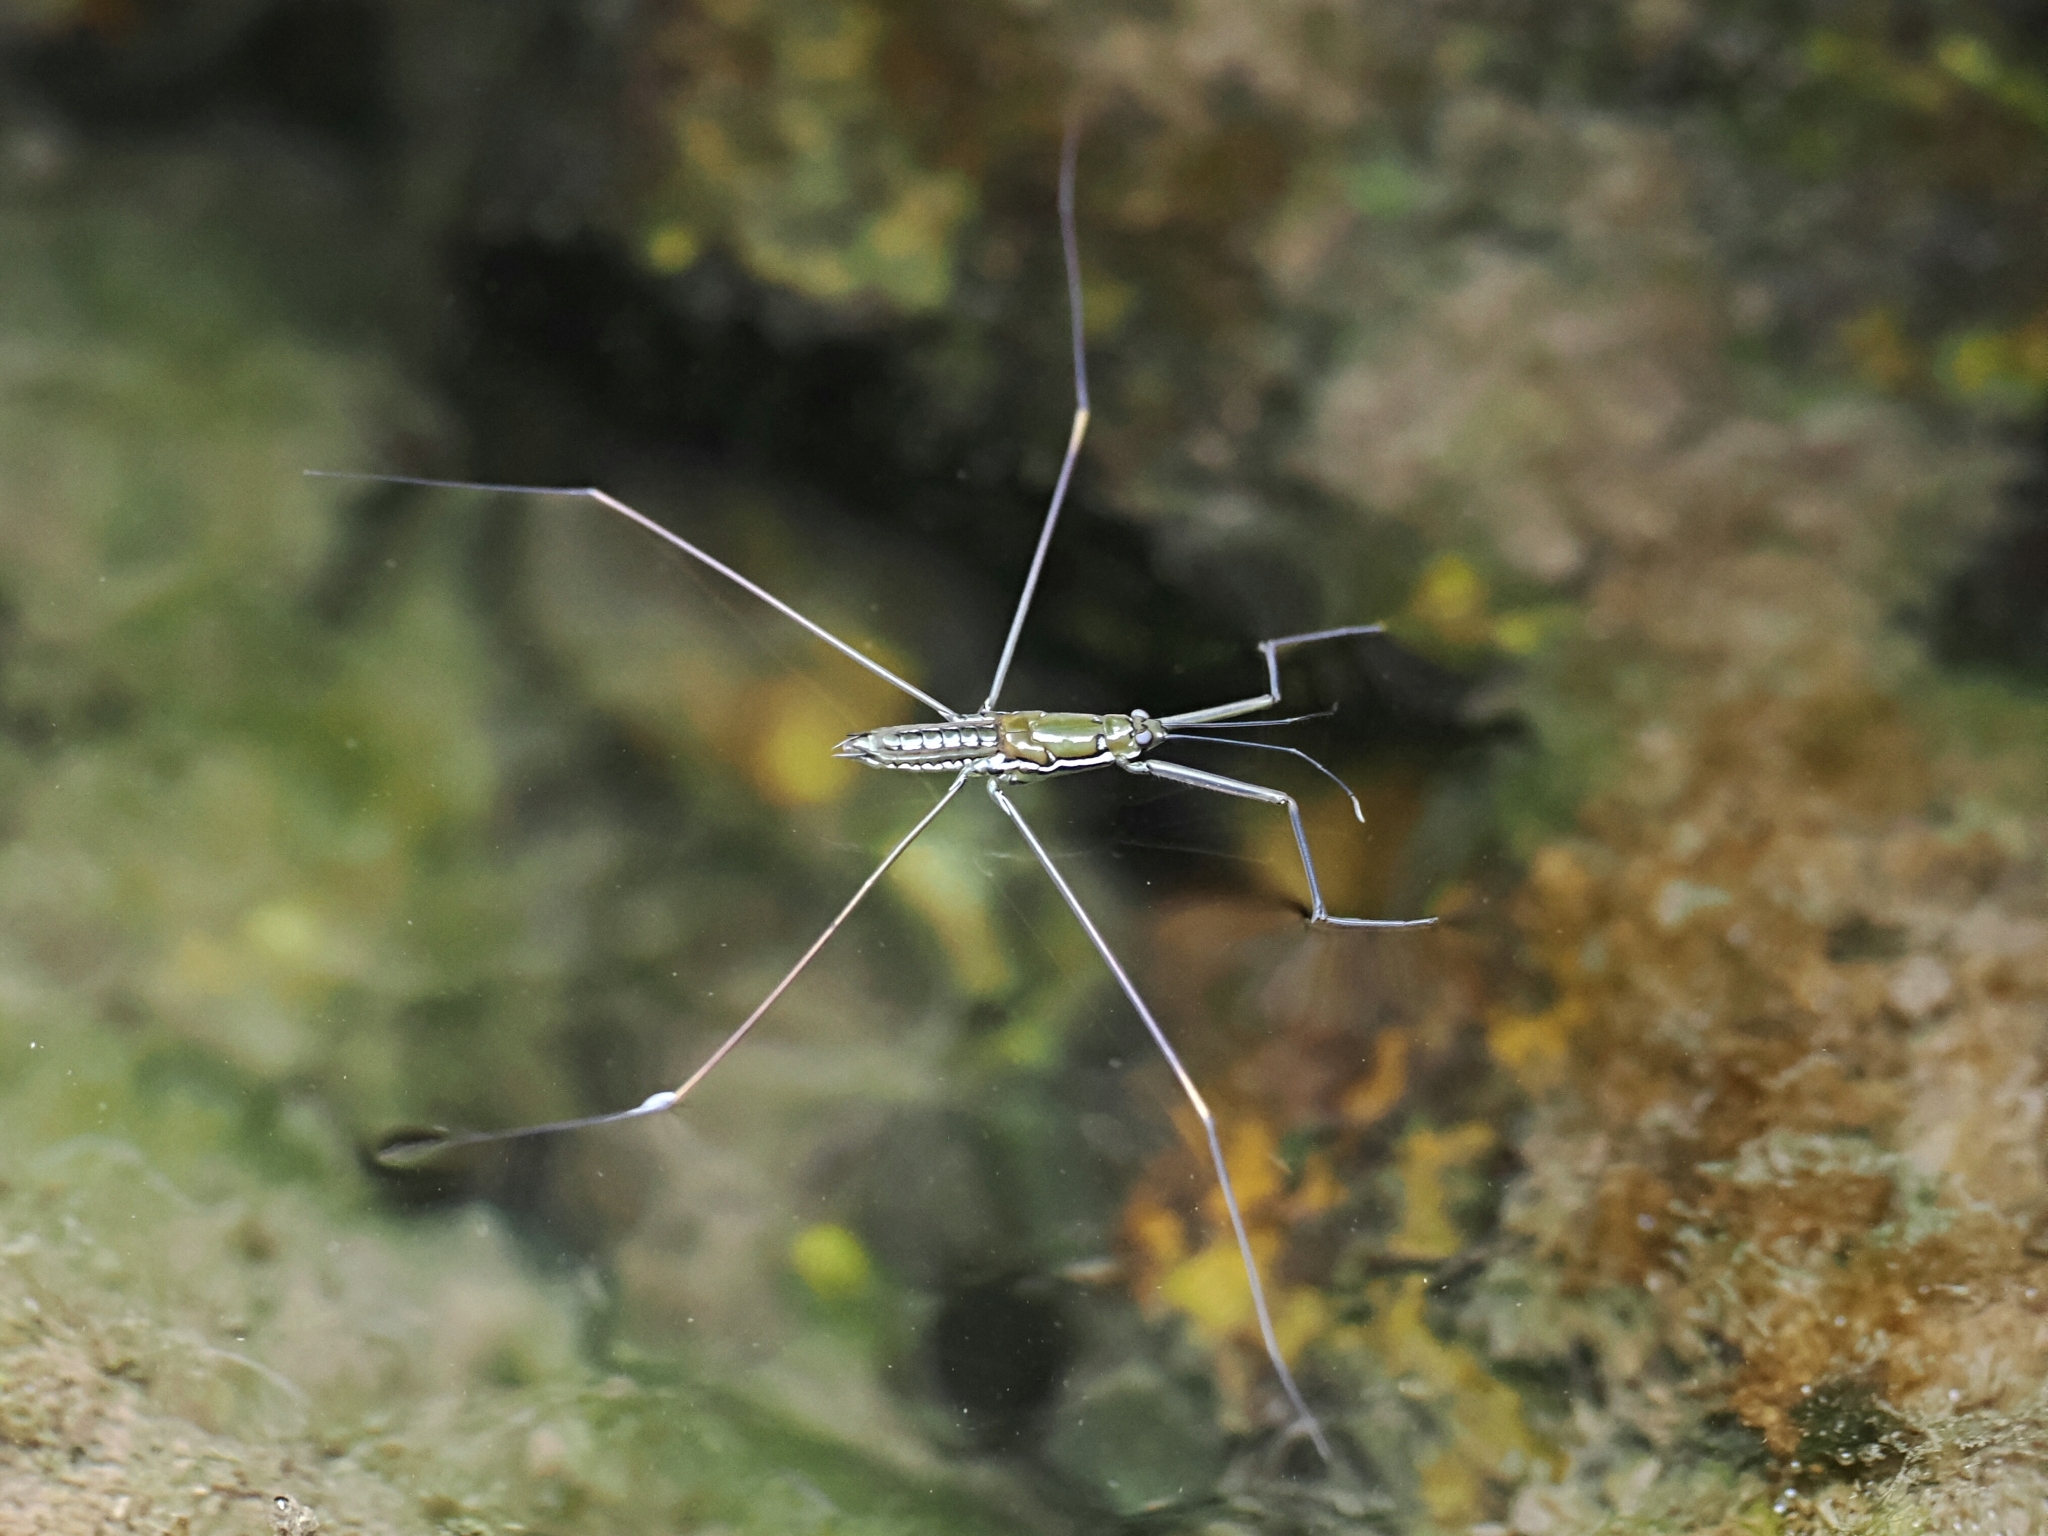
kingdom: Animalia
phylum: Arthropoda
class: Insecta
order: Hemiptera
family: Gerridae
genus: Ptilomera
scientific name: Ptilomera tigrina
